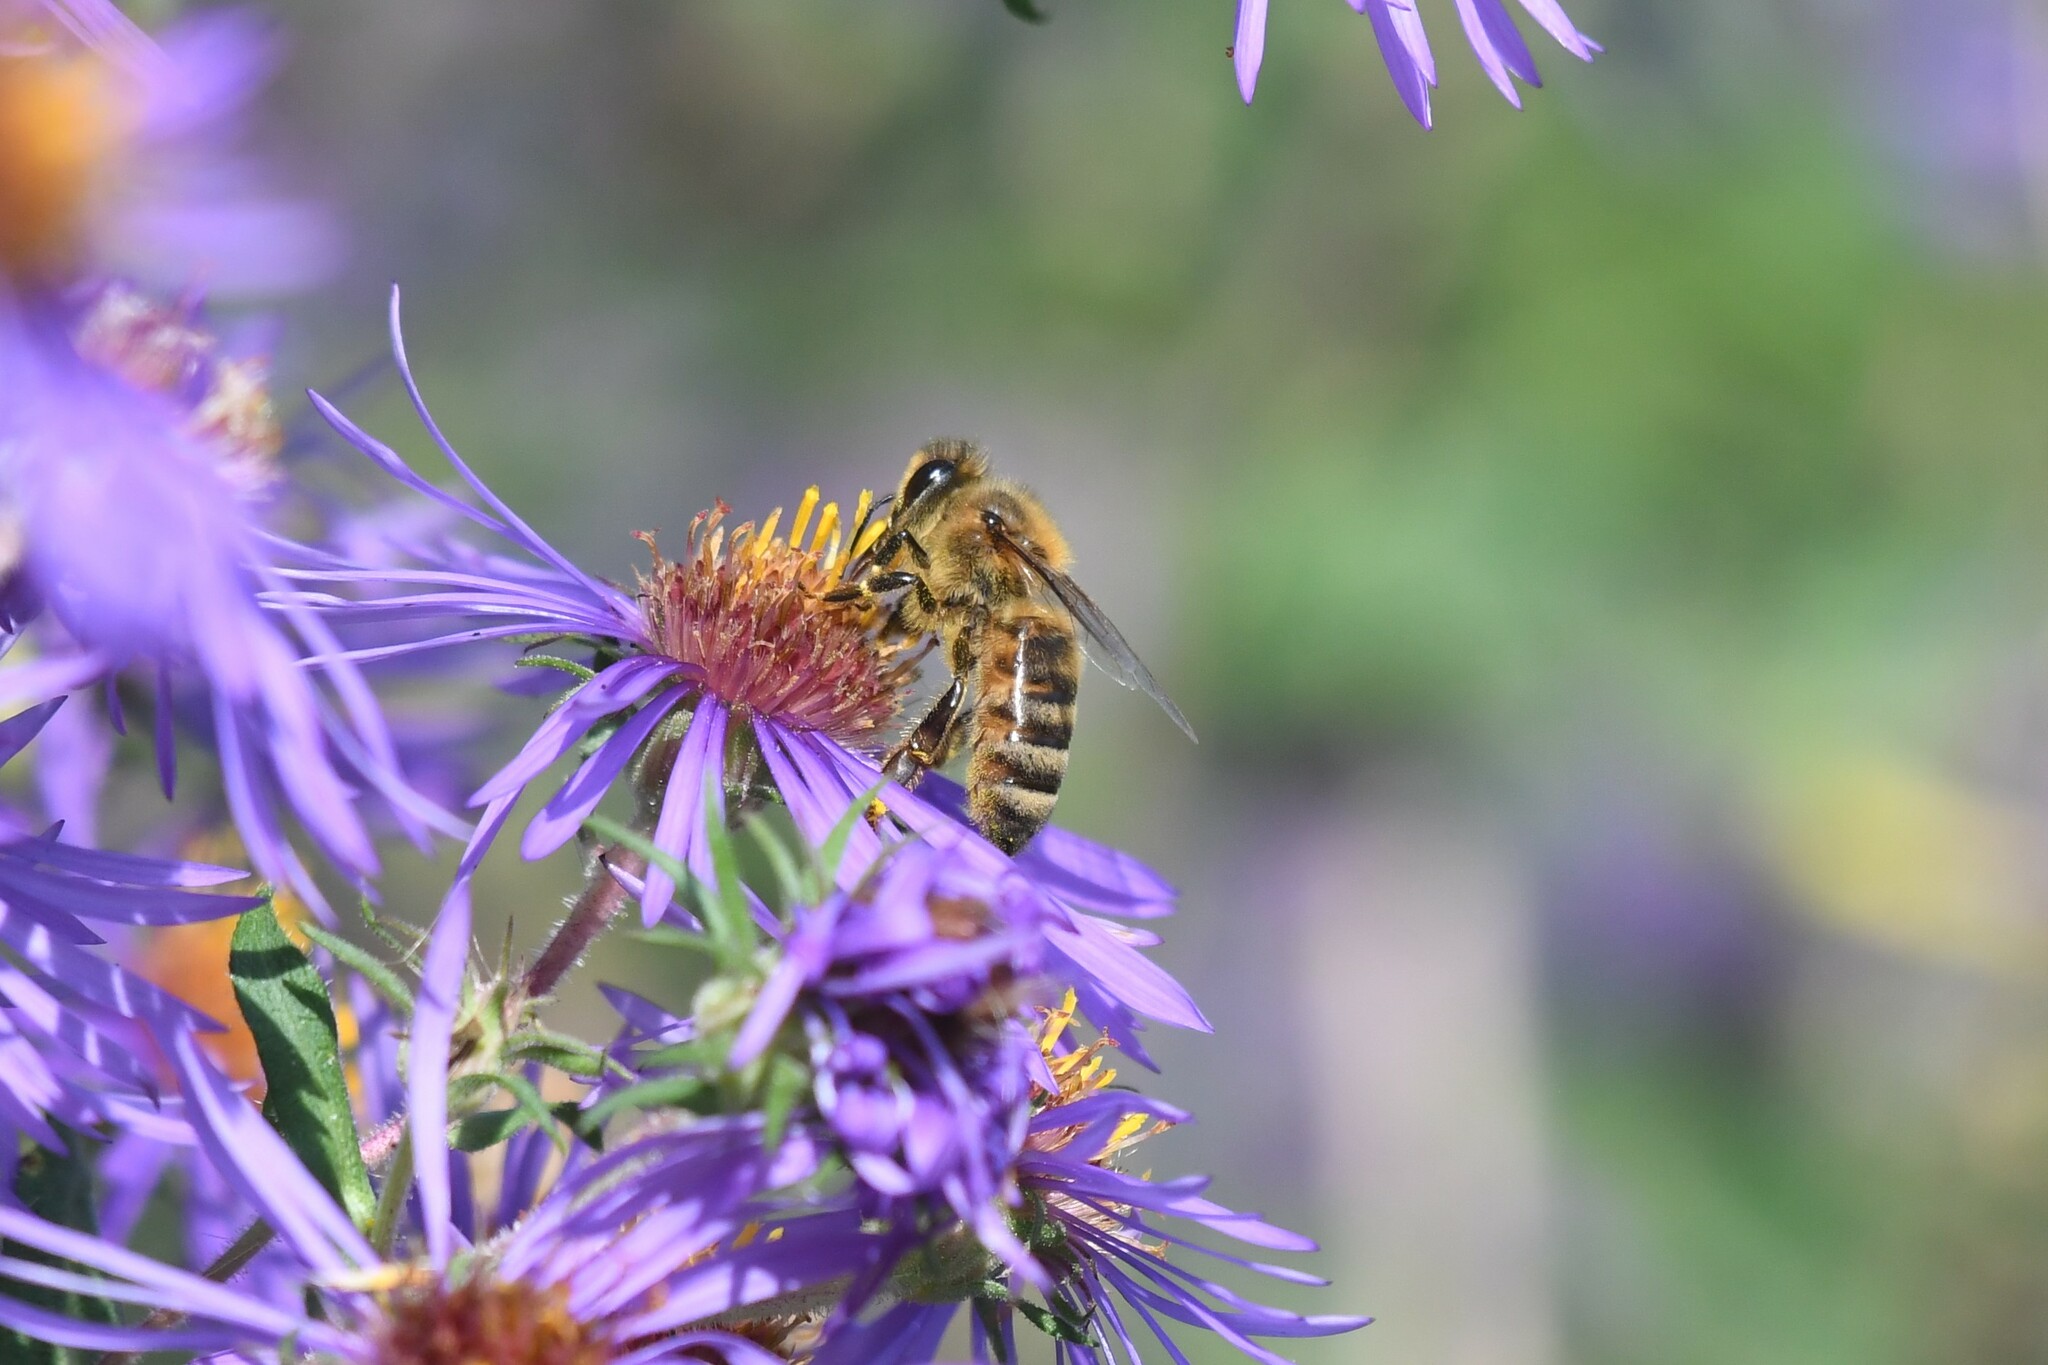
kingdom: Animalia
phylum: Arthropoda
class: Insecta
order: Hymenoptera
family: Apidae
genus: Apis
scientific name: Apis mellifera
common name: Honey bee
